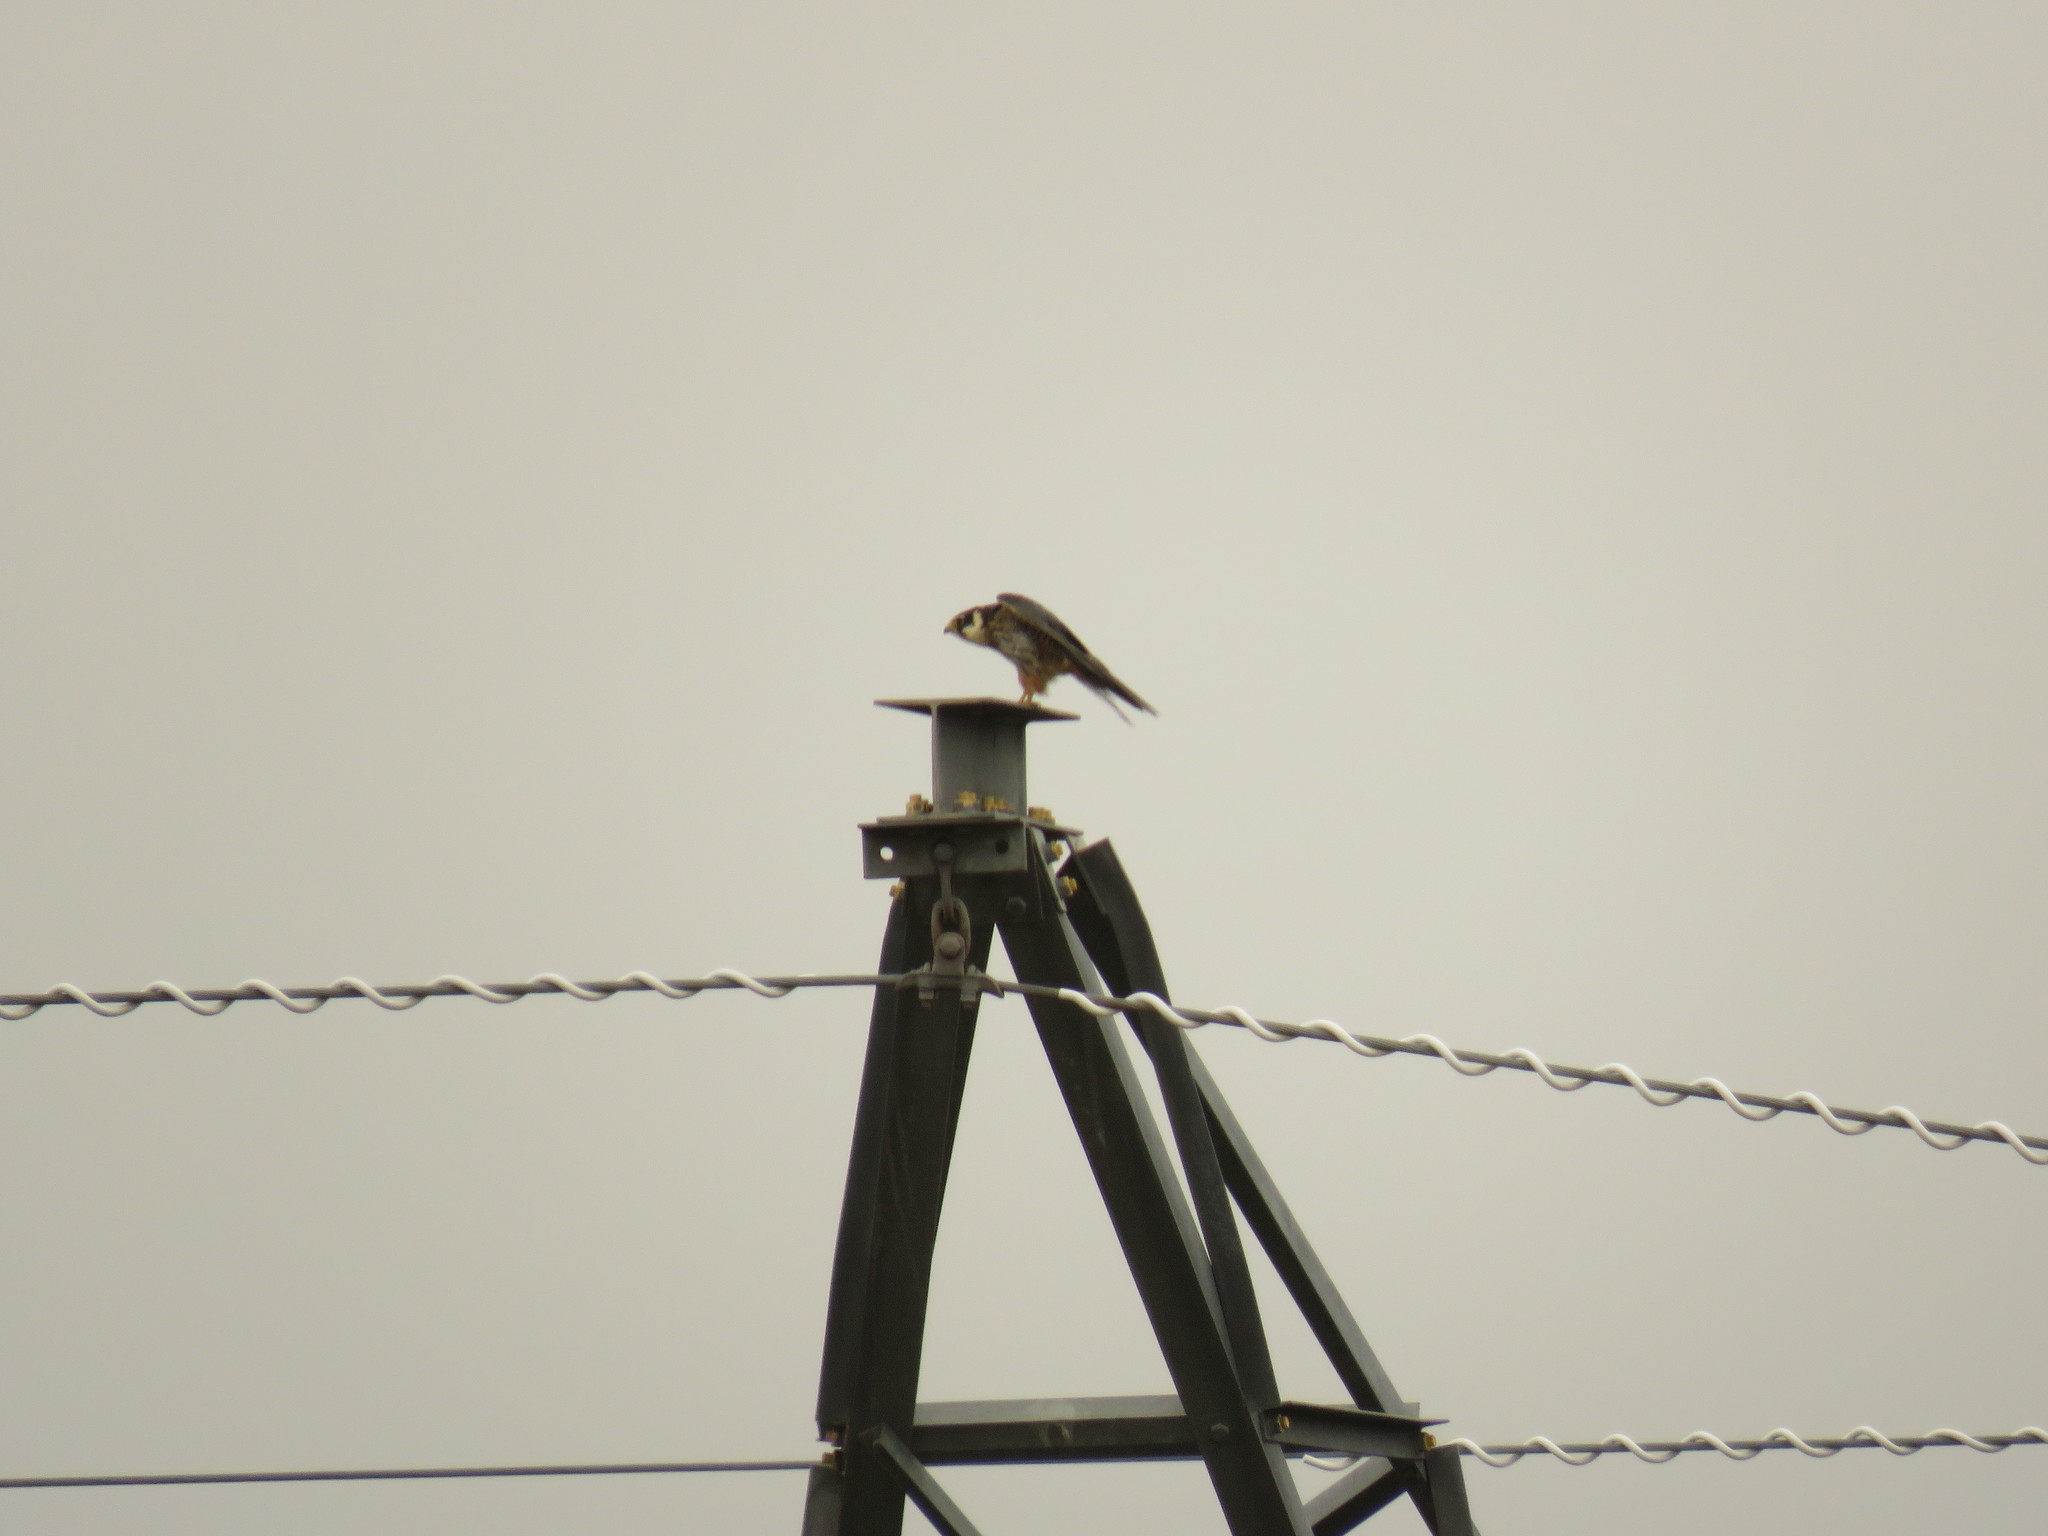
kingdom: Animalia
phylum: Chordata
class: Aves
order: Falconiformes
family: Falconidae
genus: Falco
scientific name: Falco subbuteo
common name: Eurasian hobby
